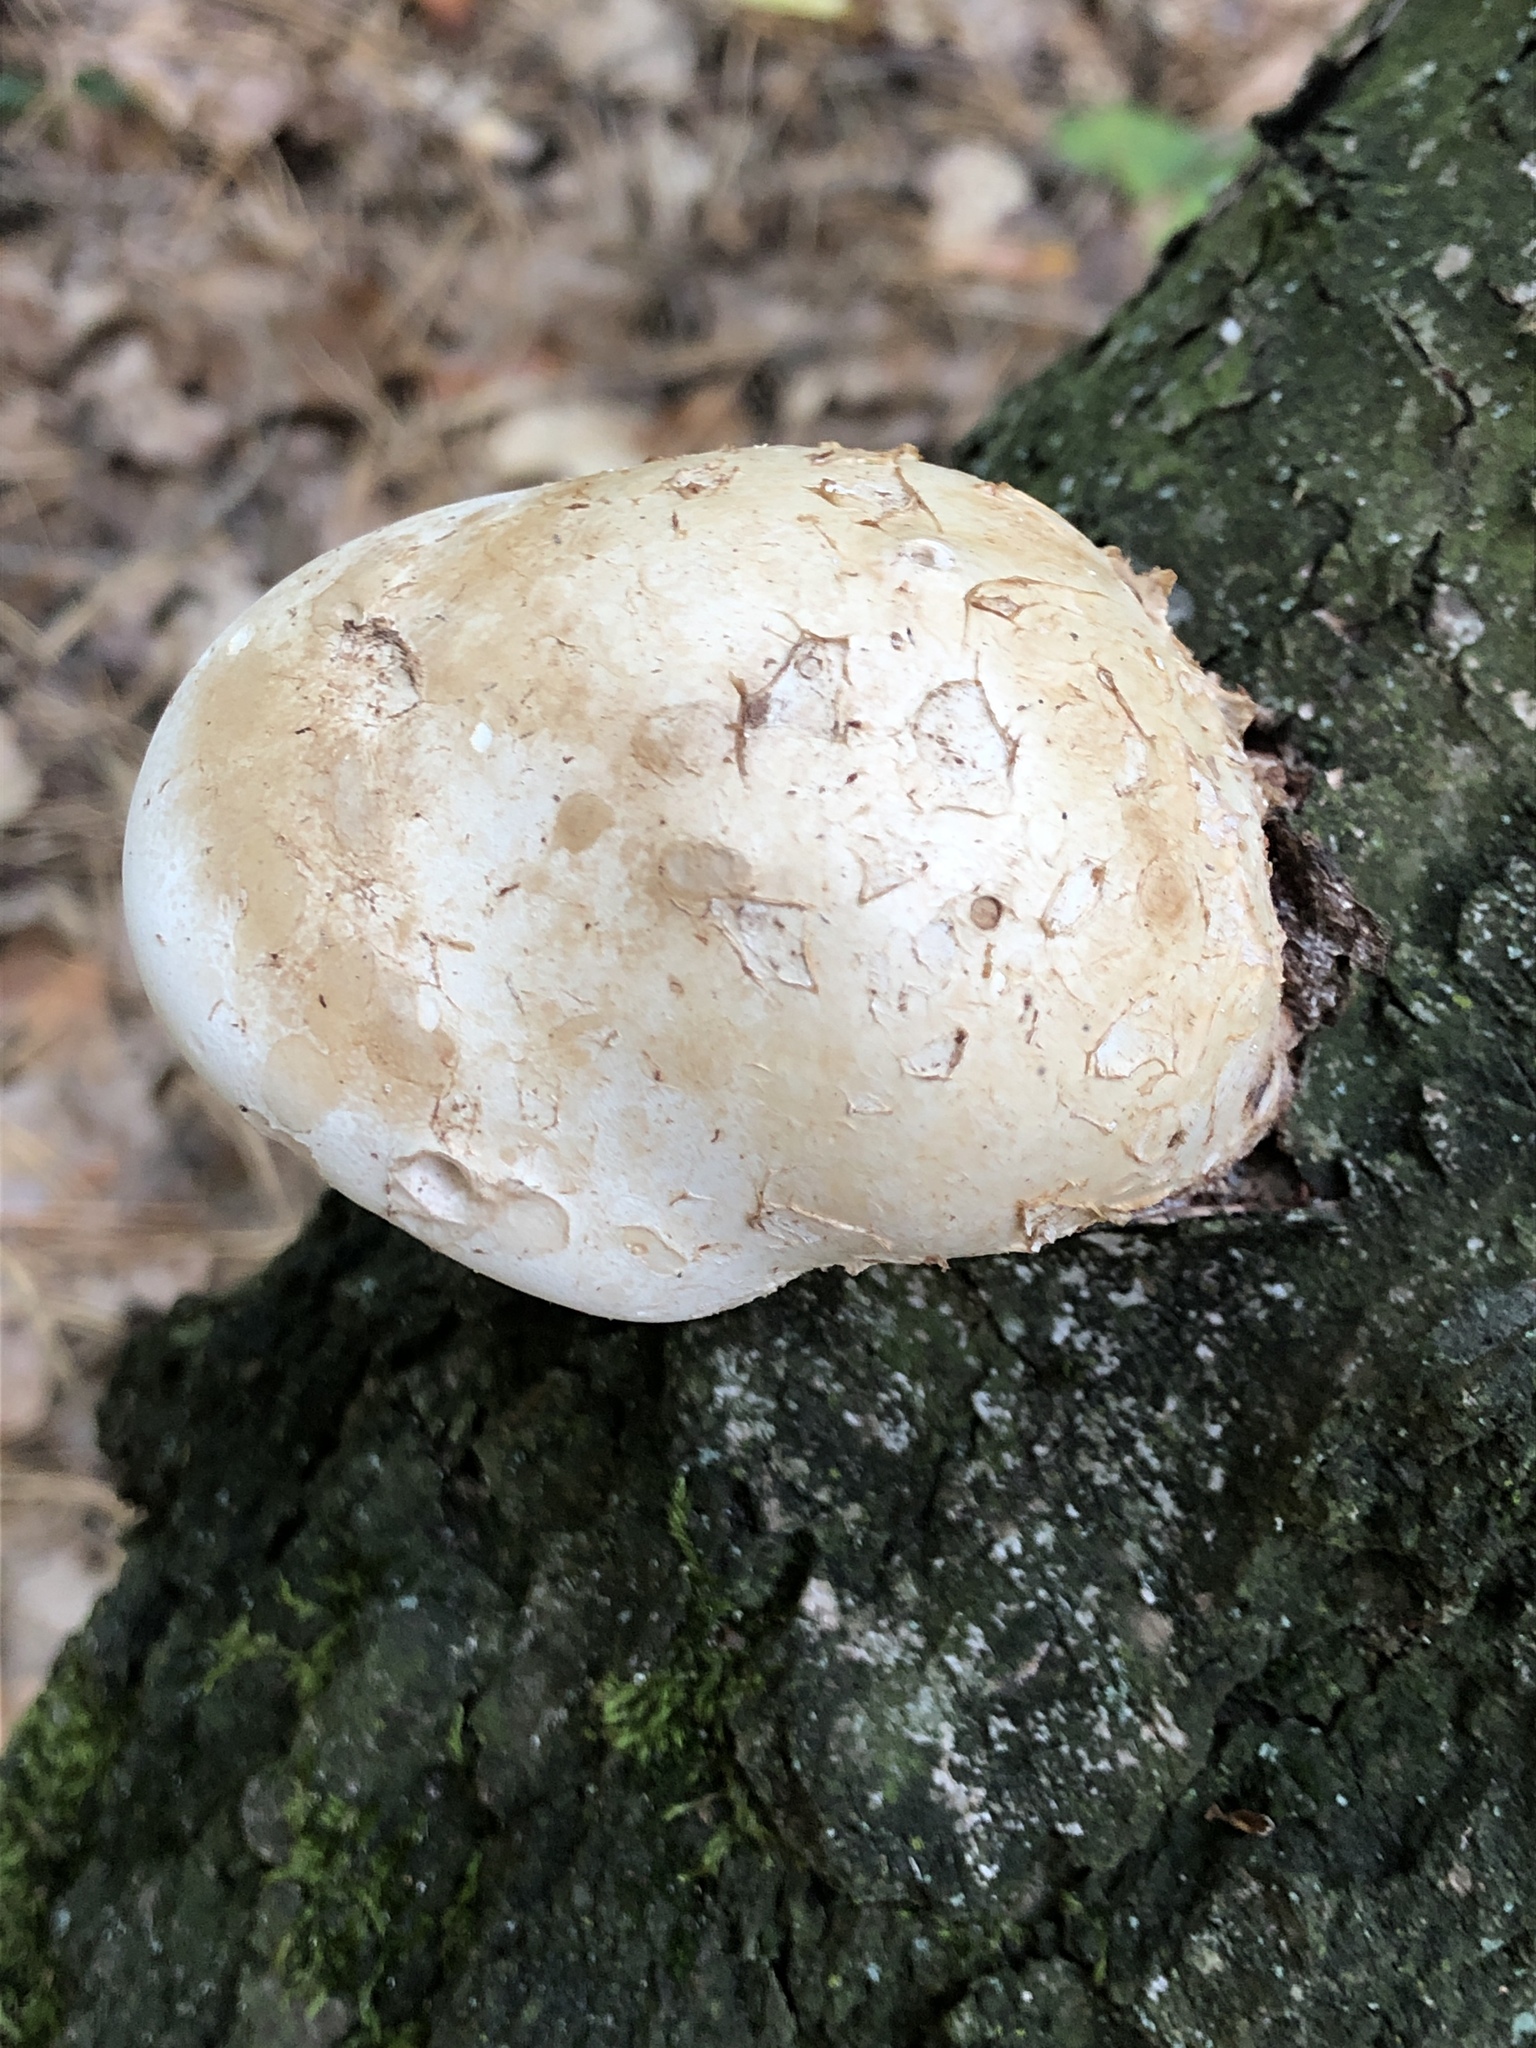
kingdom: Fungi
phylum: Basidiomycota
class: Agaricomycetes
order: Polyporales
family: Fomitopsidaceae
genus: Fomitopsis
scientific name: Fomitopsis betulina
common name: Birch polypore
